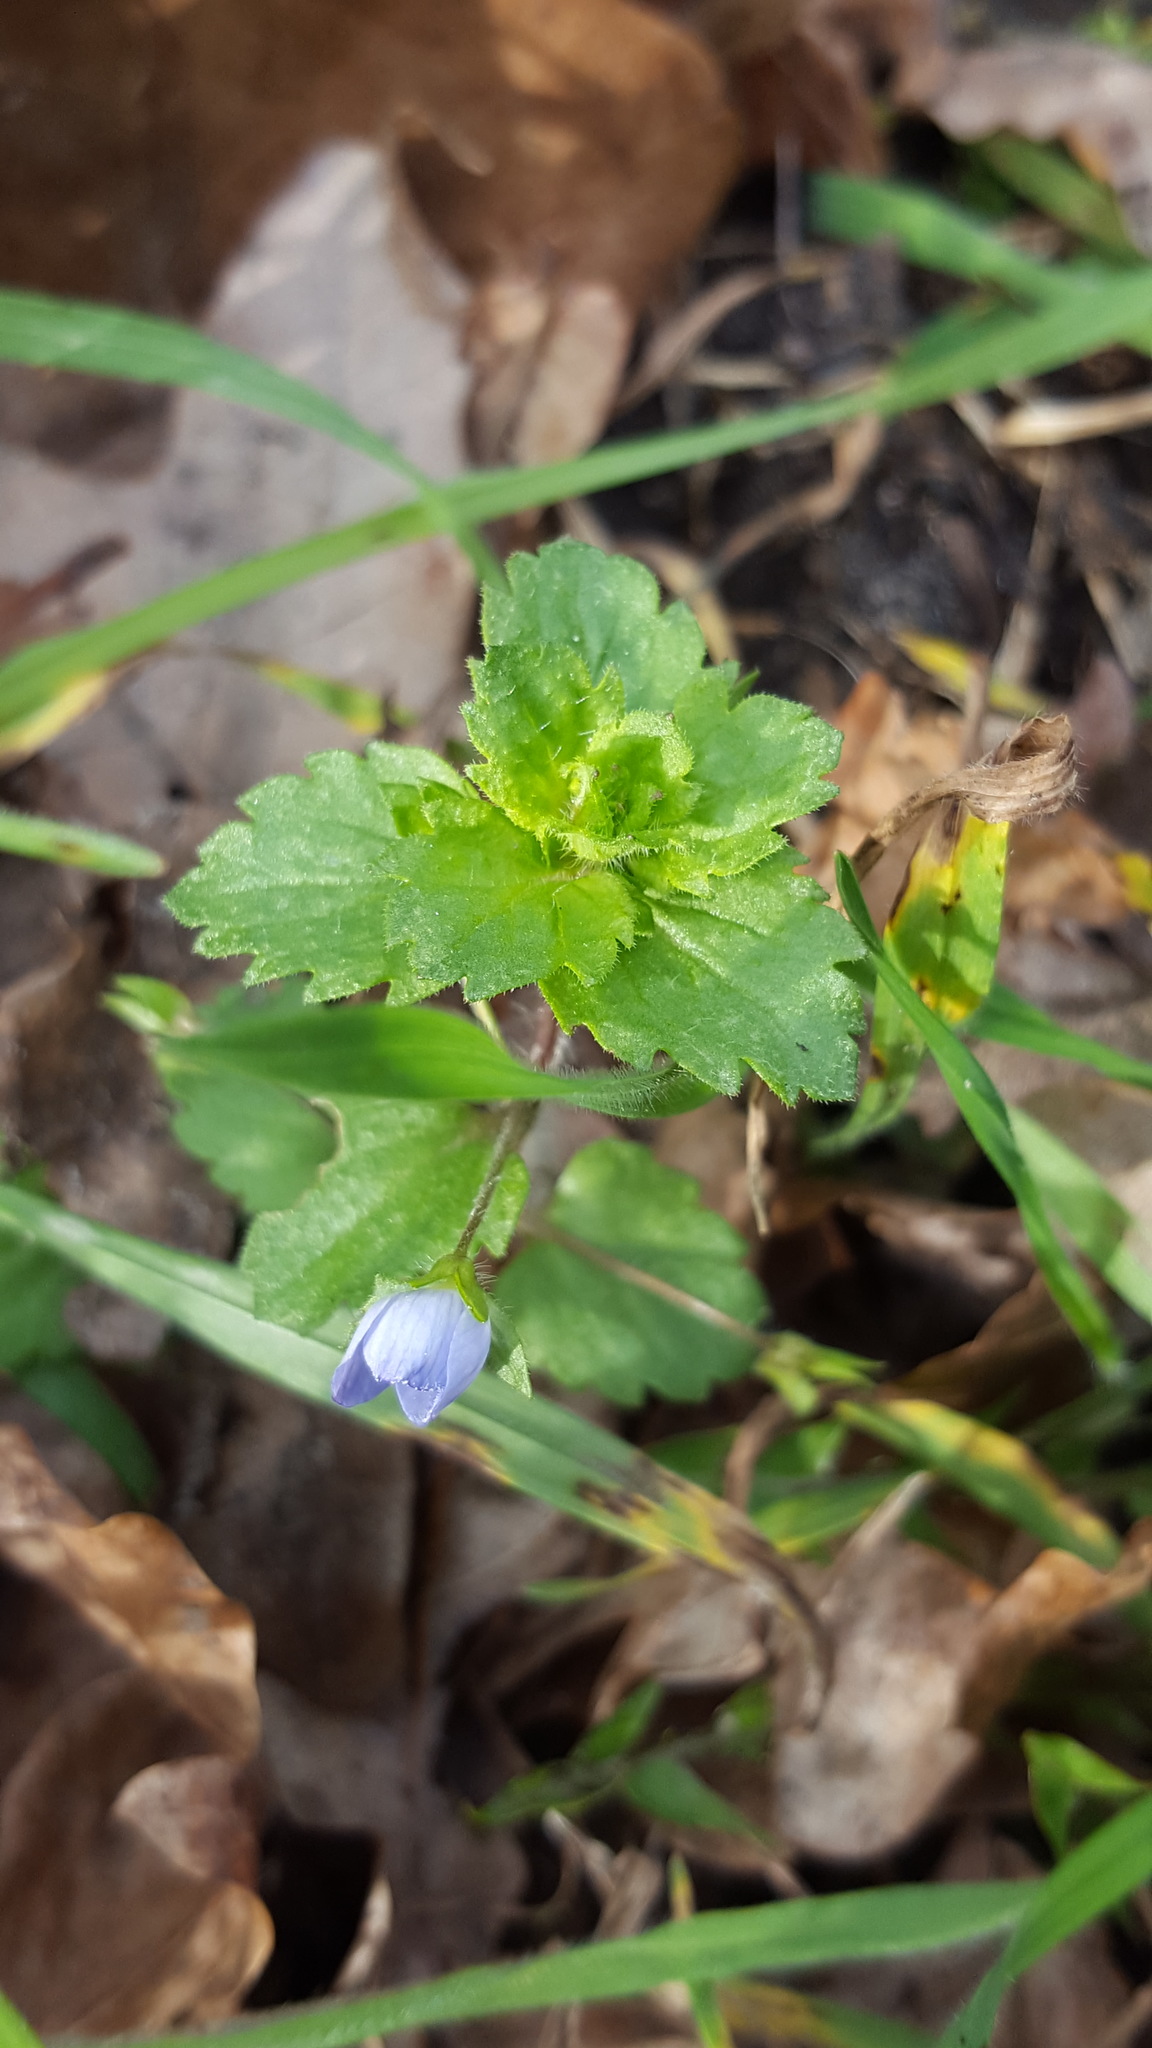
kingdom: Plantae
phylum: Tracheophyta
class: Magnoliopsida
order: Lamiales
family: Plantaginaceae
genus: Veronica
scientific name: Veronica persica
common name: Common field-speedwell
